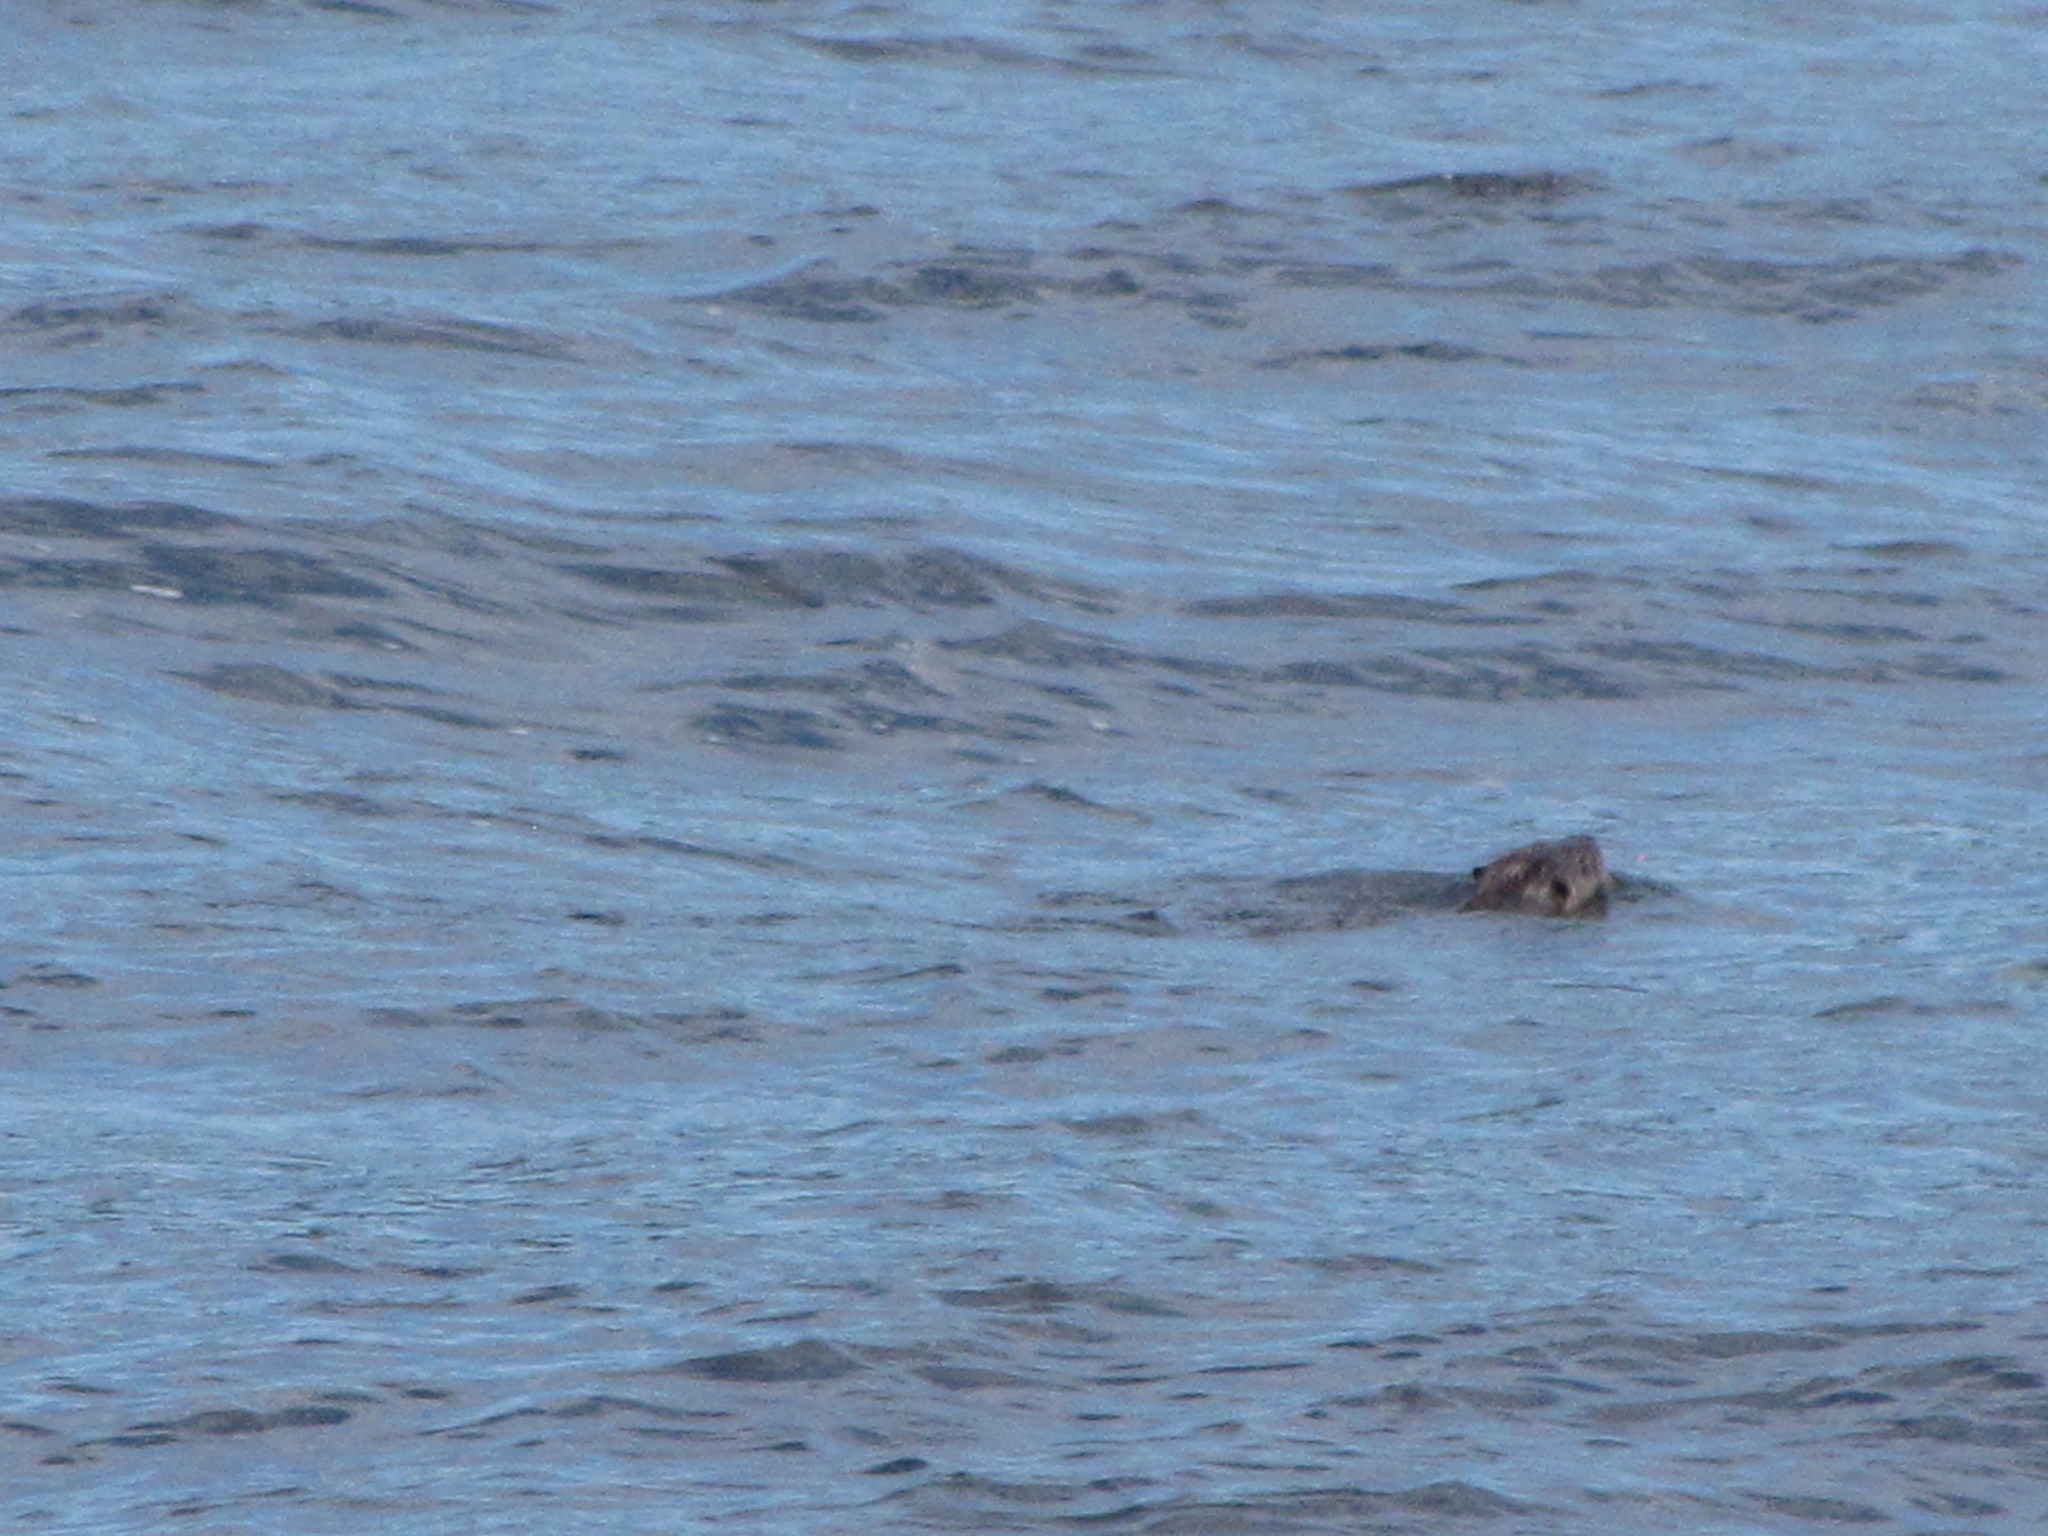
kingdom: Animalia
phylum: Chordata
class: Mammalia
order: Carnivora
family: Mustelidae
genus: Lontra
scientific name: Lontra canadensis
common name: North american river otter
